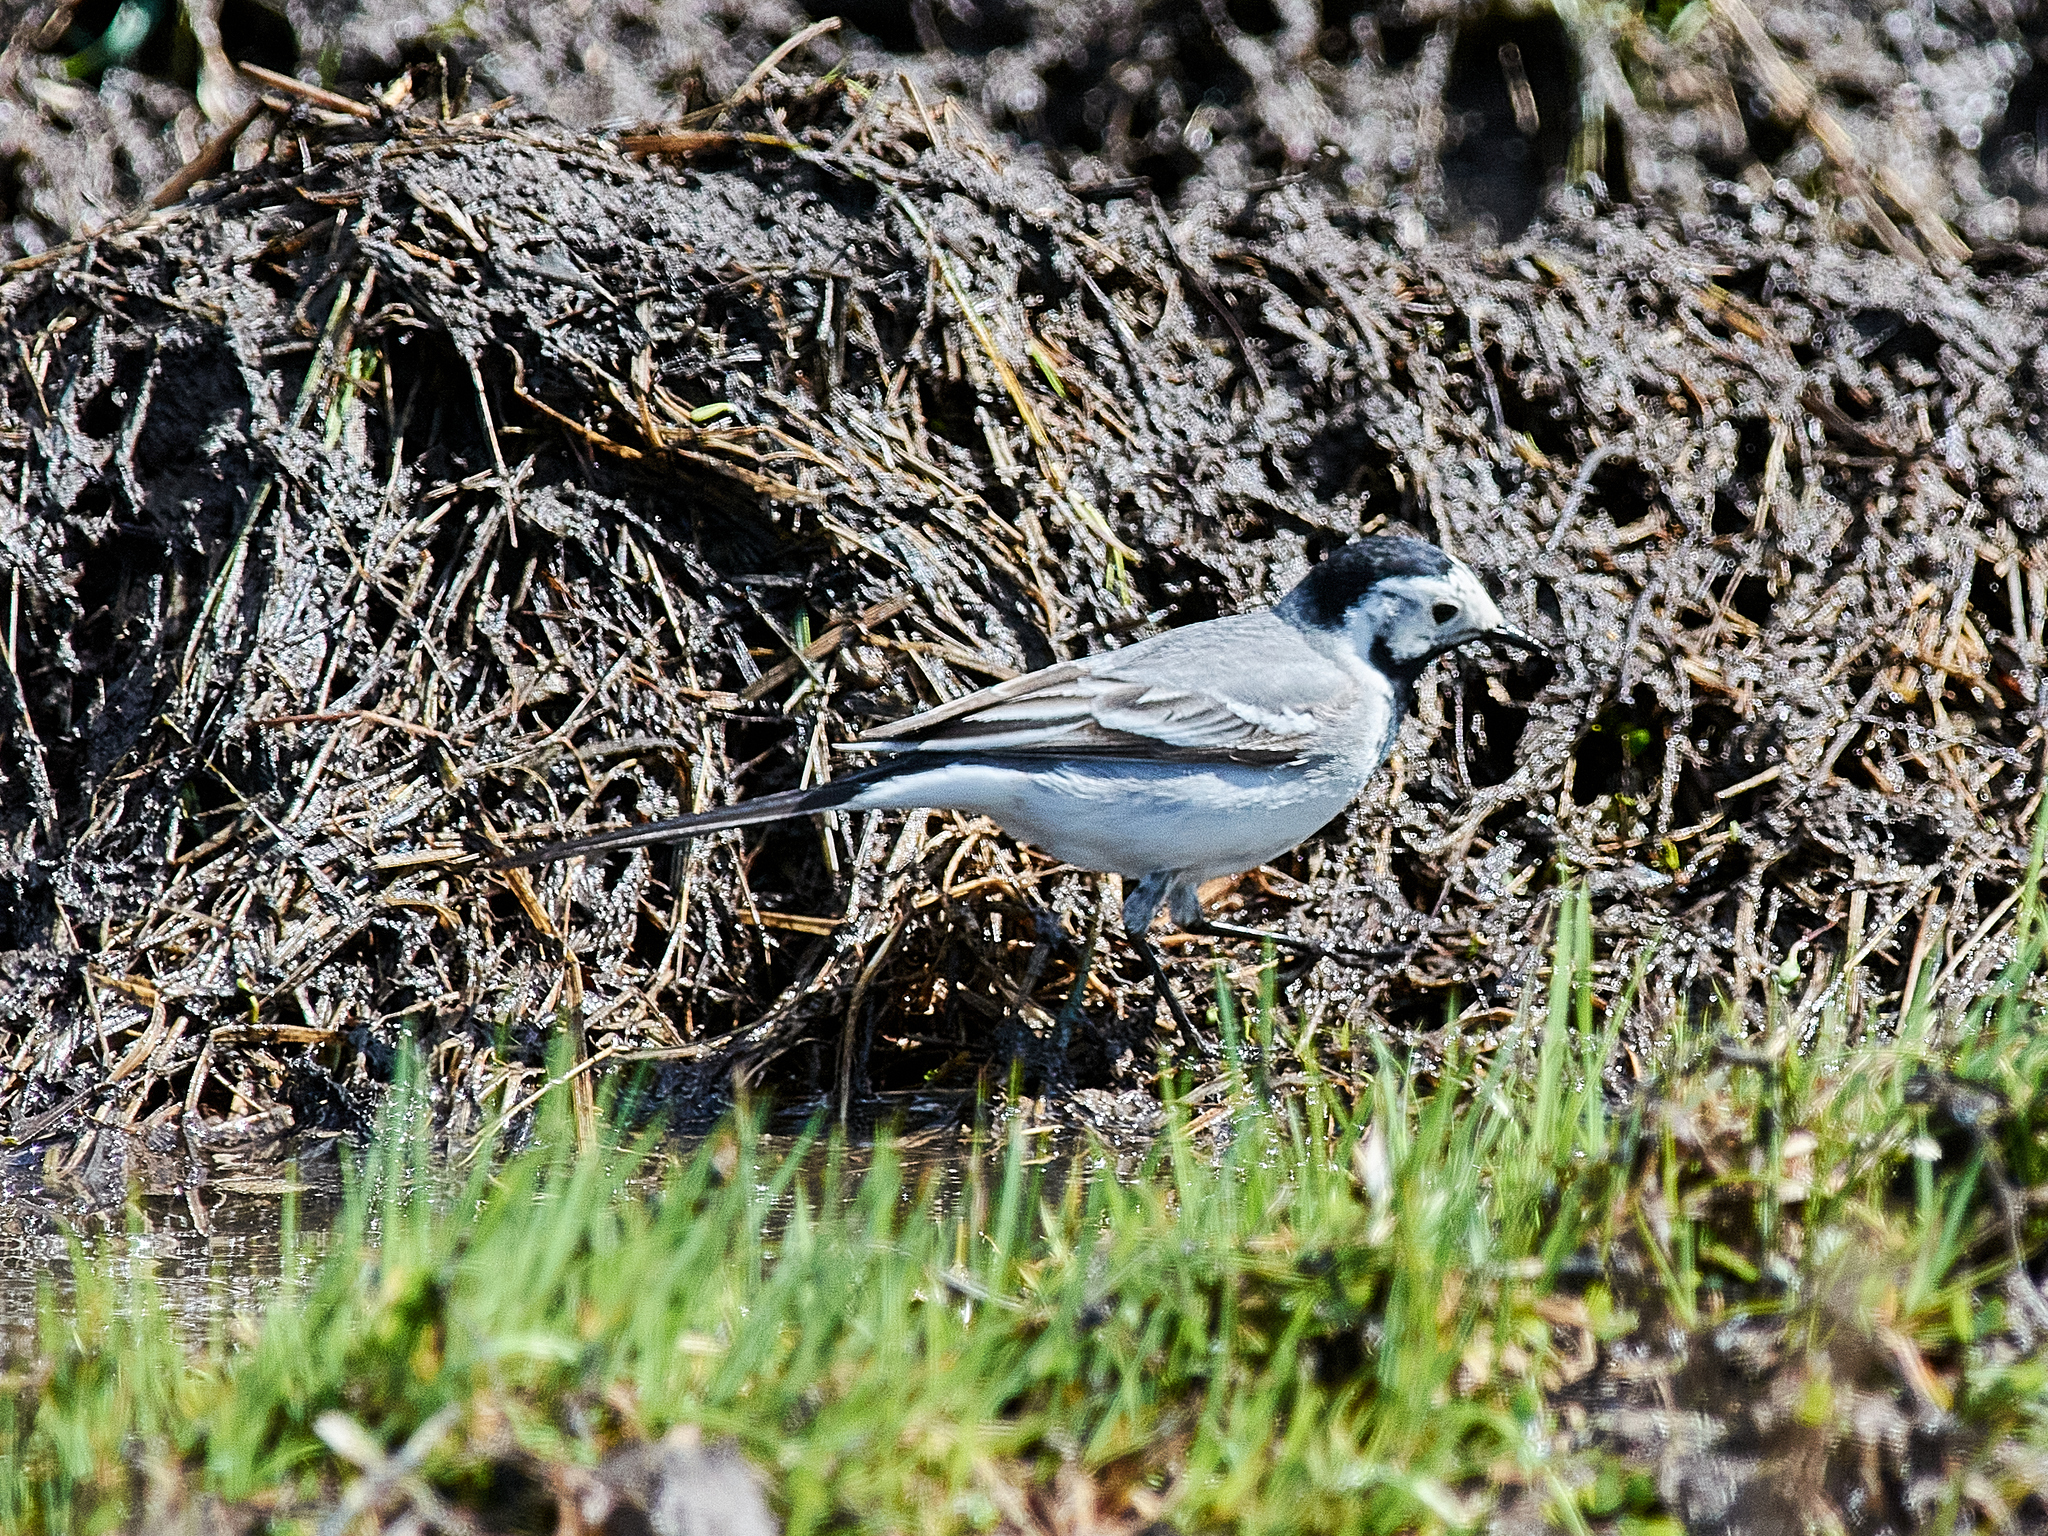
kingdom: Animalia
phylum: Chordata
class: Aves
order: Passeriformes
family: Motacillidae
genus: Motacilla
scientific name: Motacilla alba
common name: White wagtail
